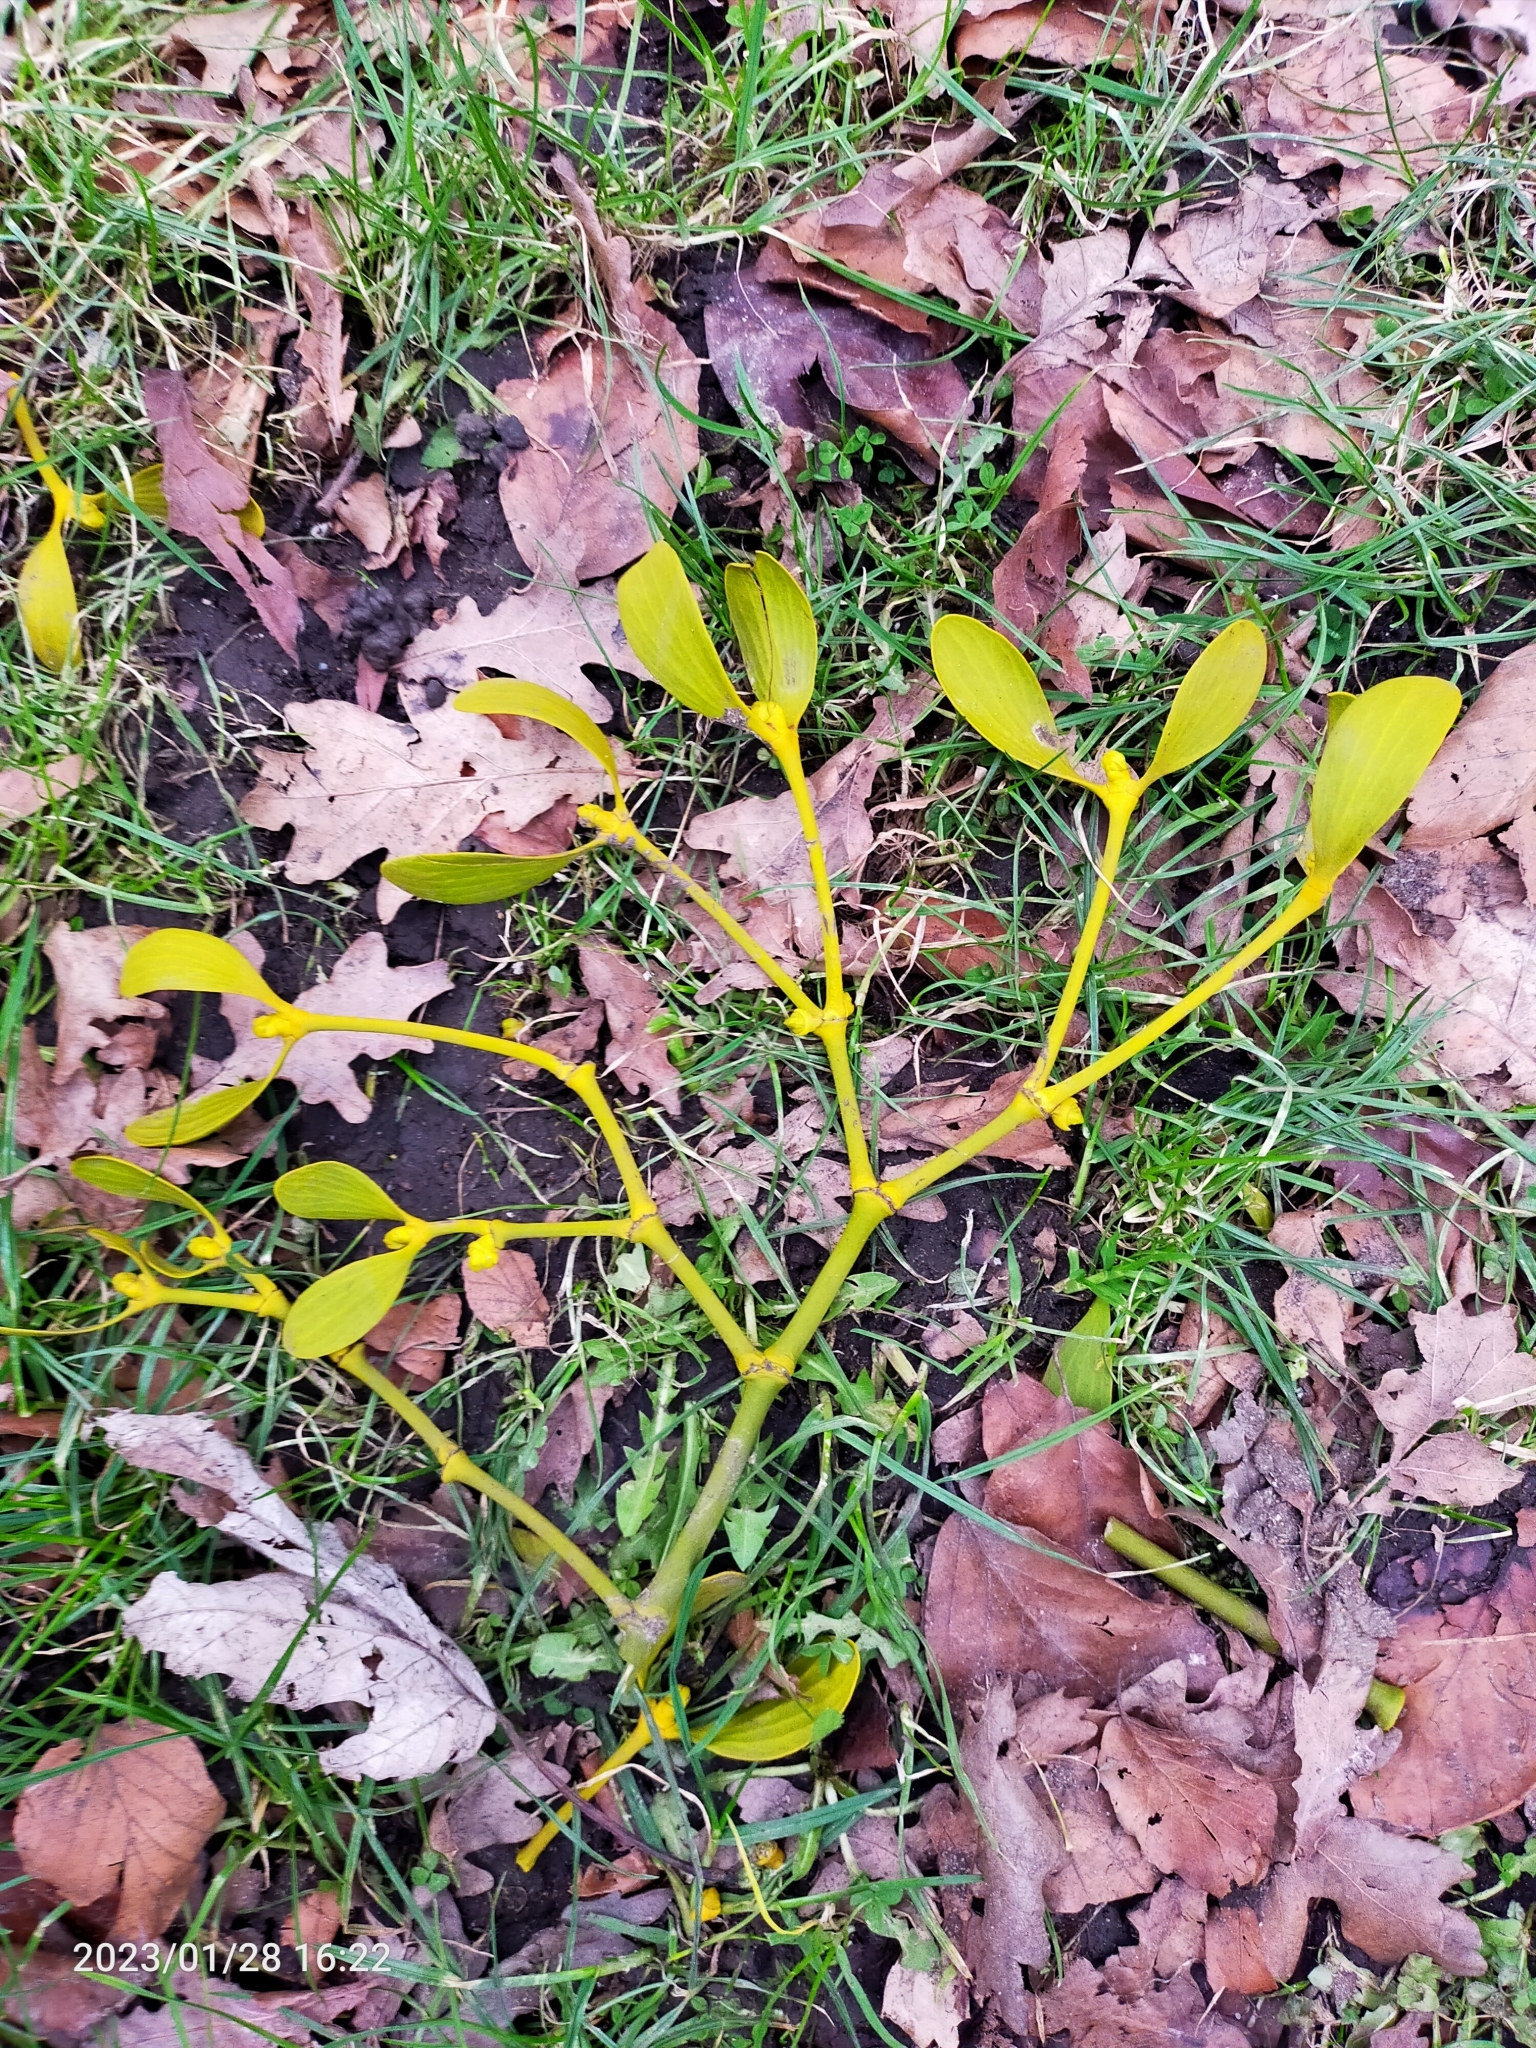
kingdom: Plantae
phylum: Tracheophyta
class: Magnoliopsida
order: Santalales
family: Viscaceae
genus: Viscum
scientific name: Viscum album
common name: Mistletoe
